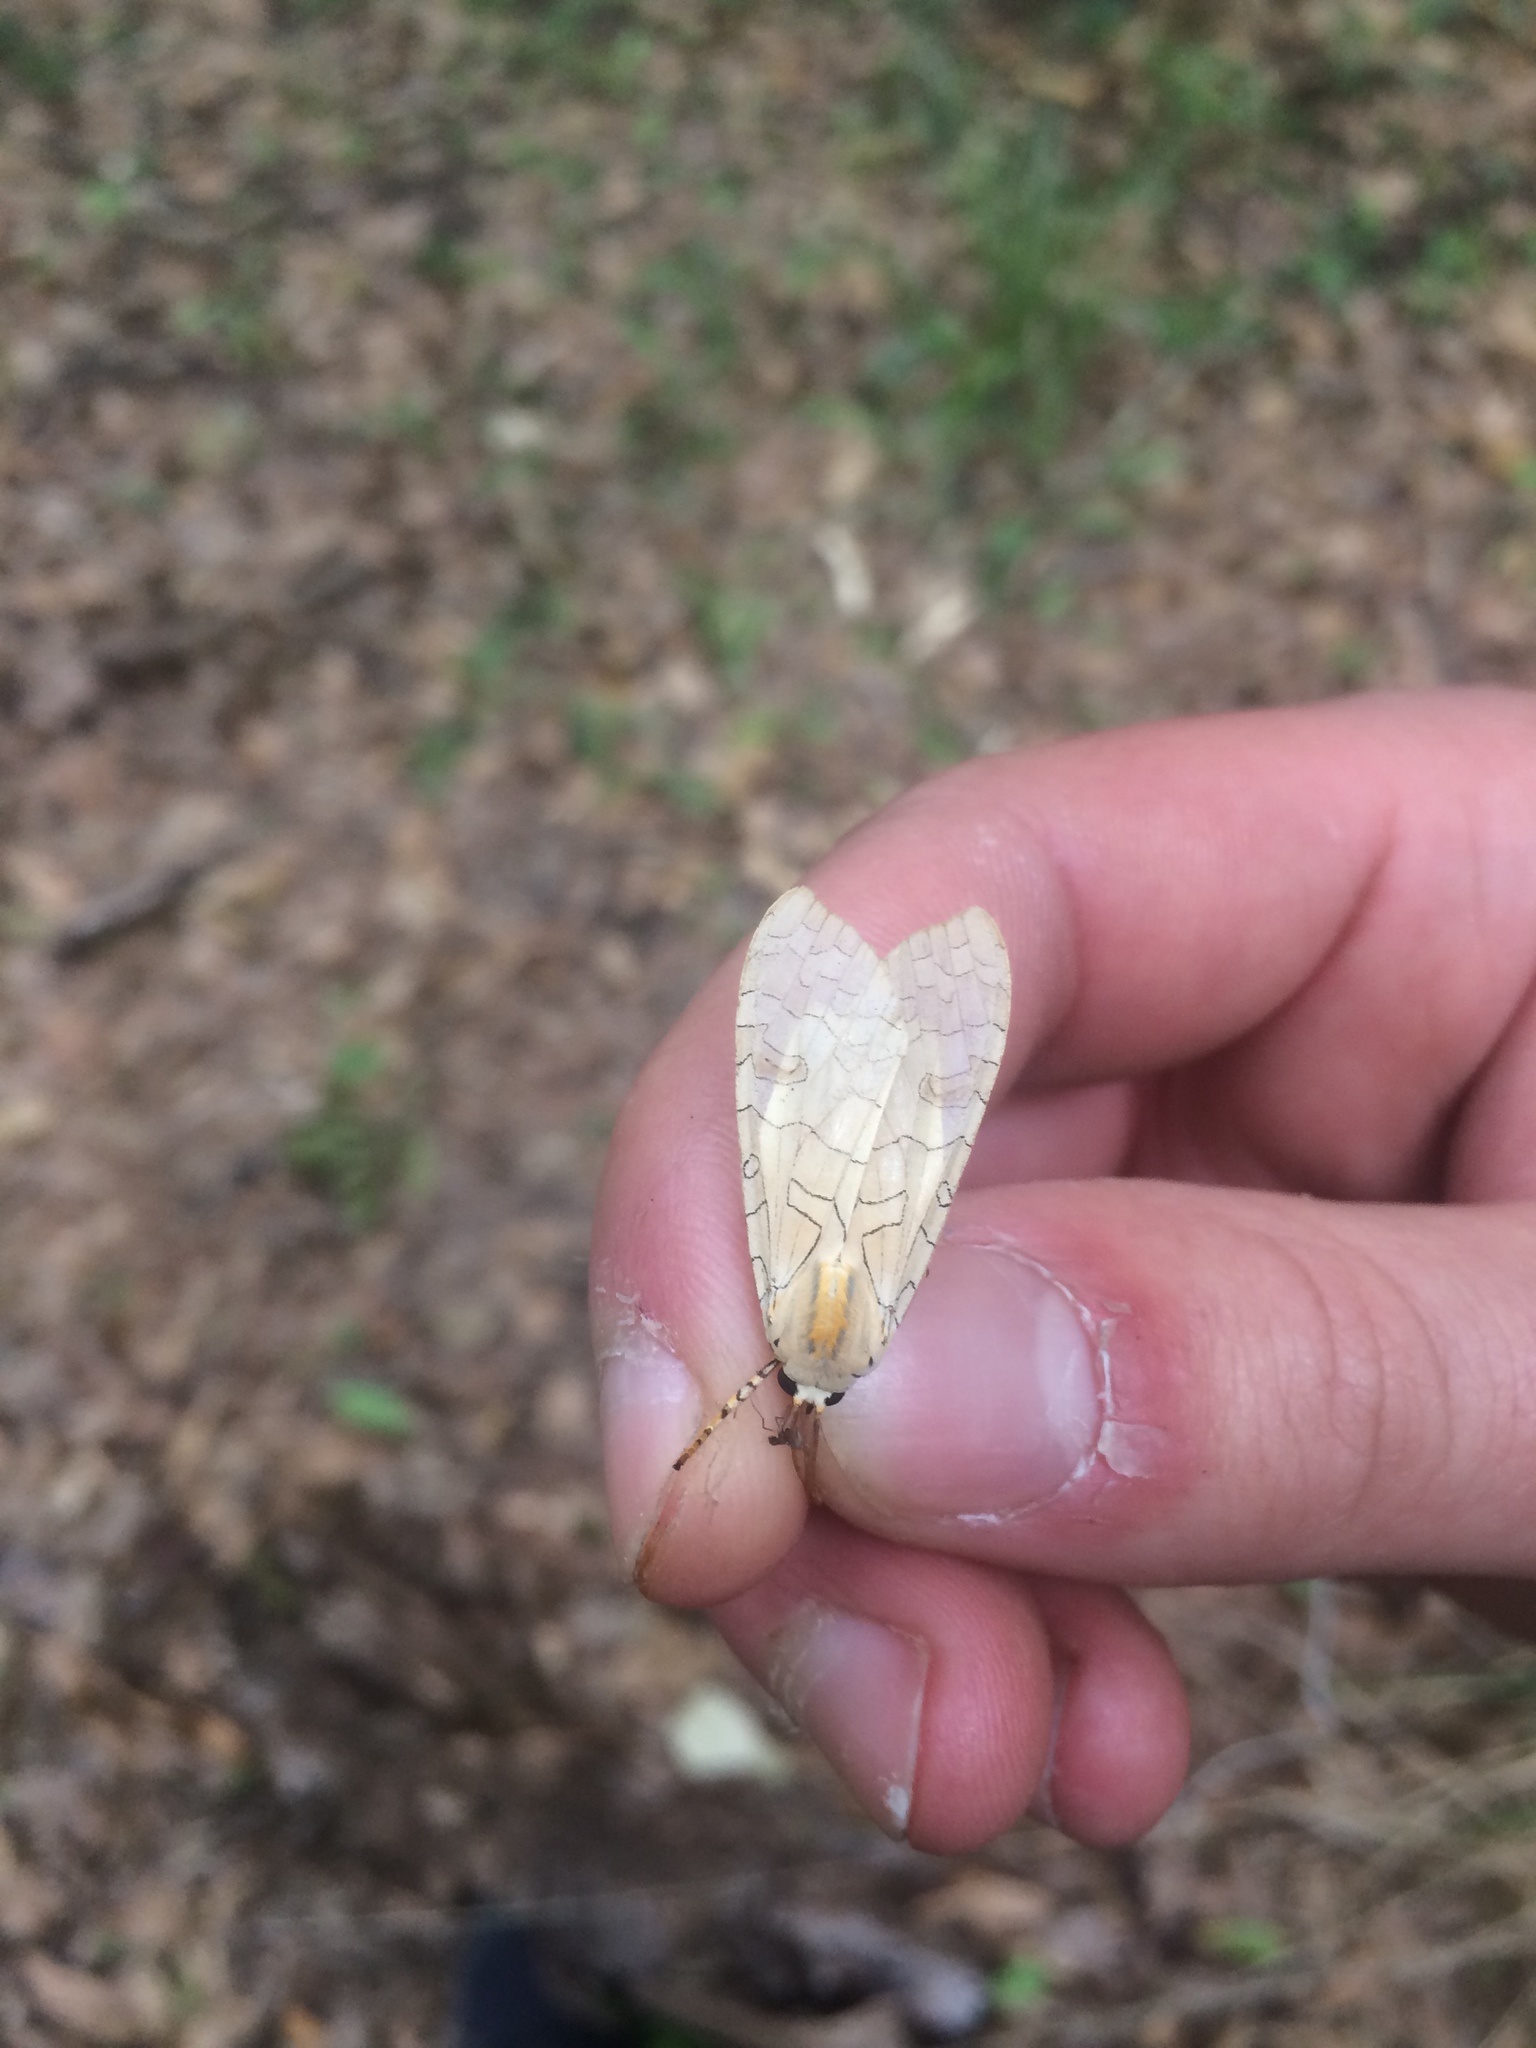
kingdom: Animalia
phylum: Arthropoda
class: Insecta
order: Lepidoptera
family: Erebidae
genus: Halysidota
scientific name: Halysidota
